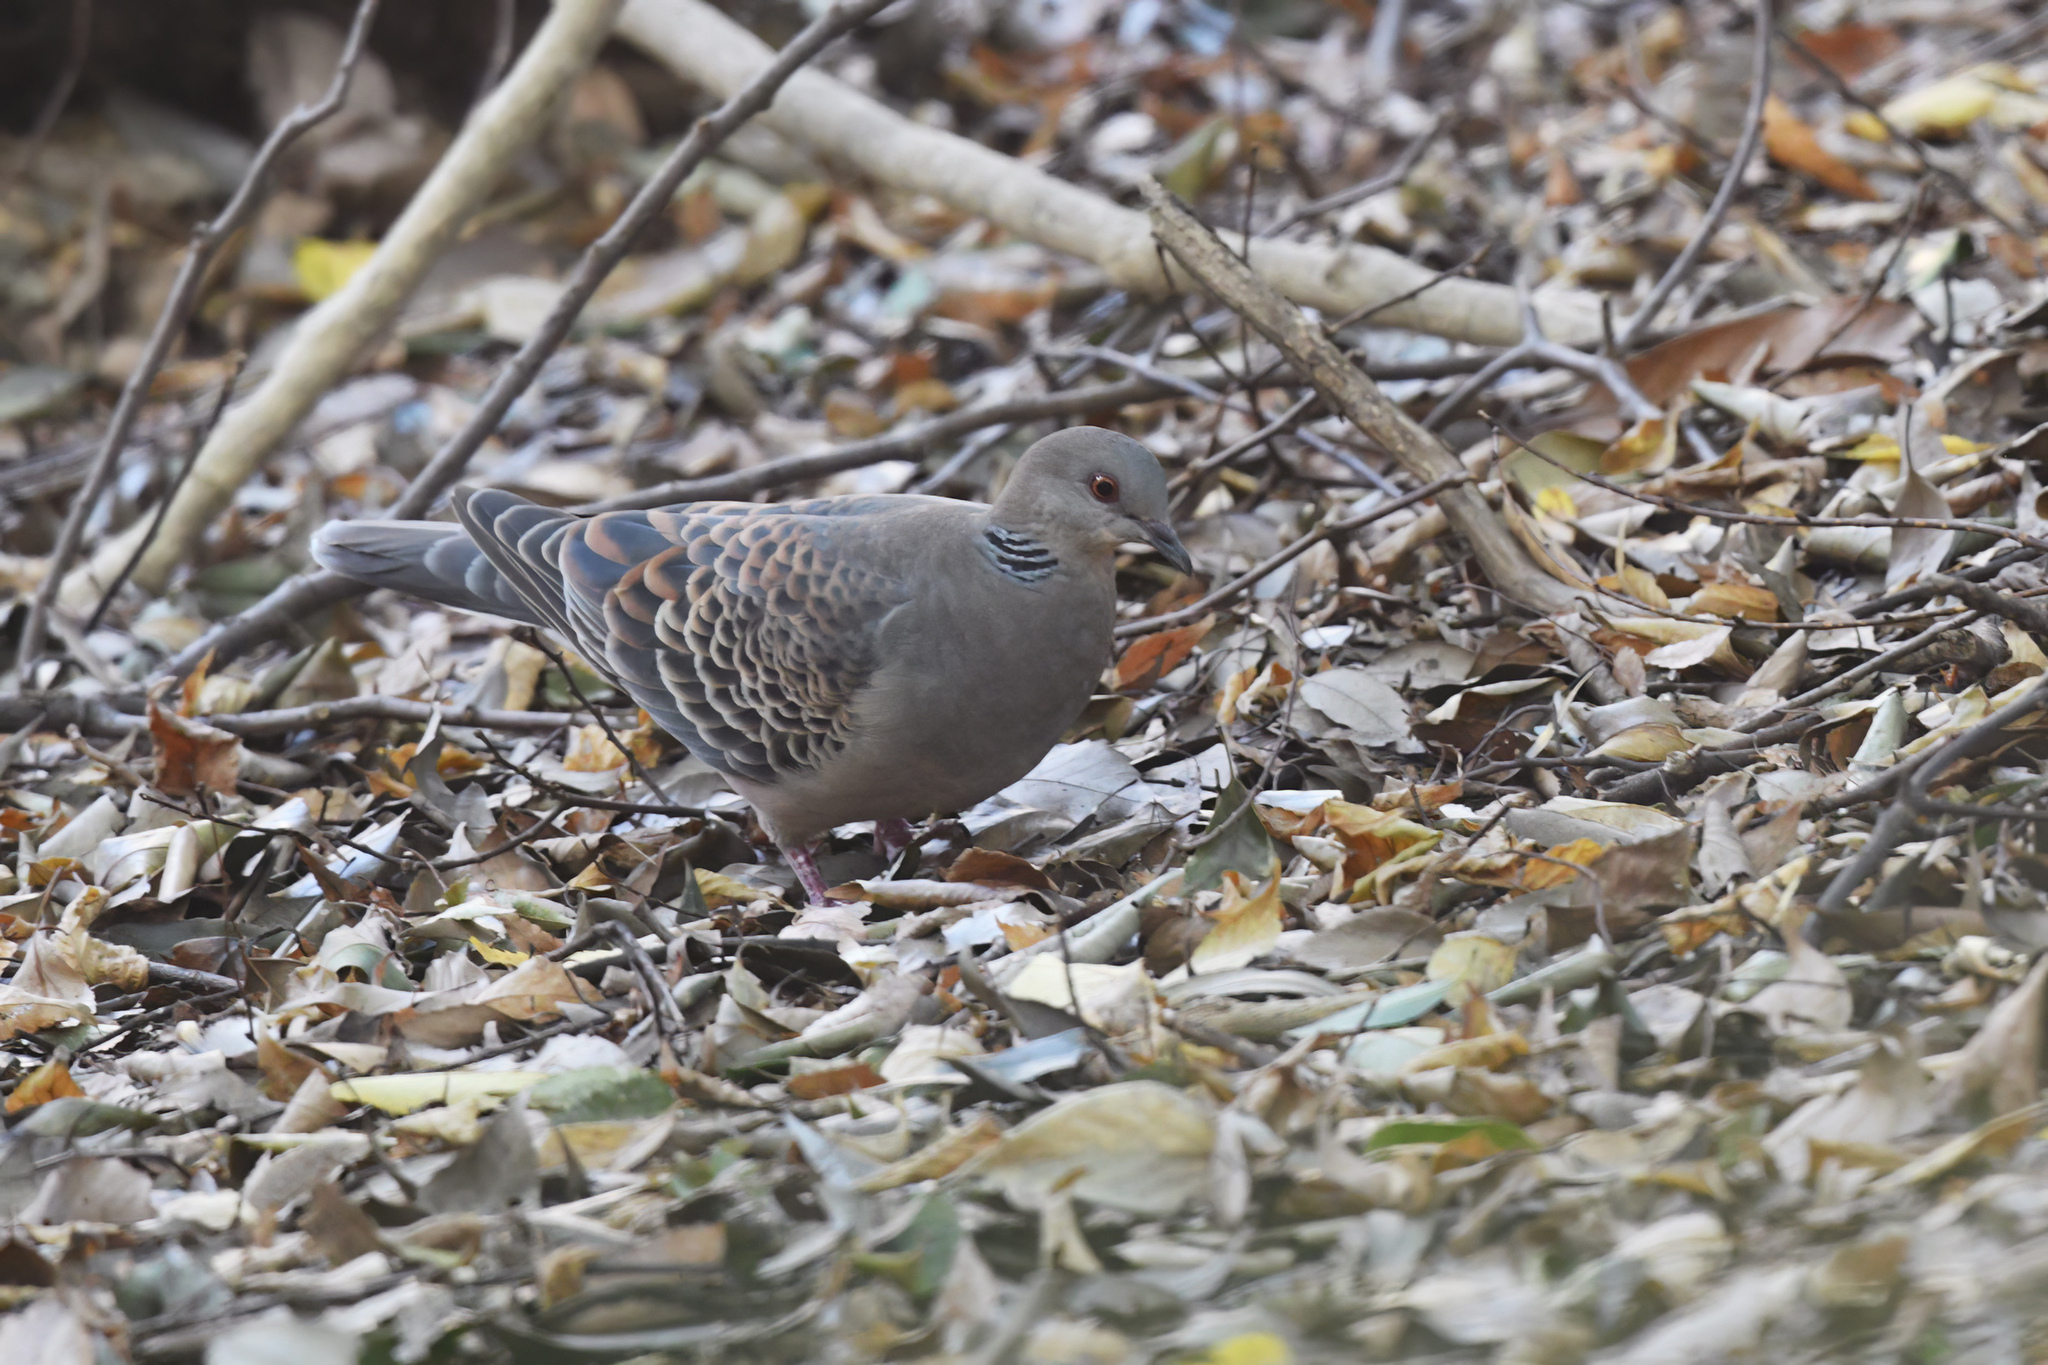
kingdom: Animalia
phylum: Chordata
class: Aves
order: Columbiformes
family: Columbidae
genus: Streptopelia
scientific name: Streptopelia orientalis
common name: Oriental turtle dove
